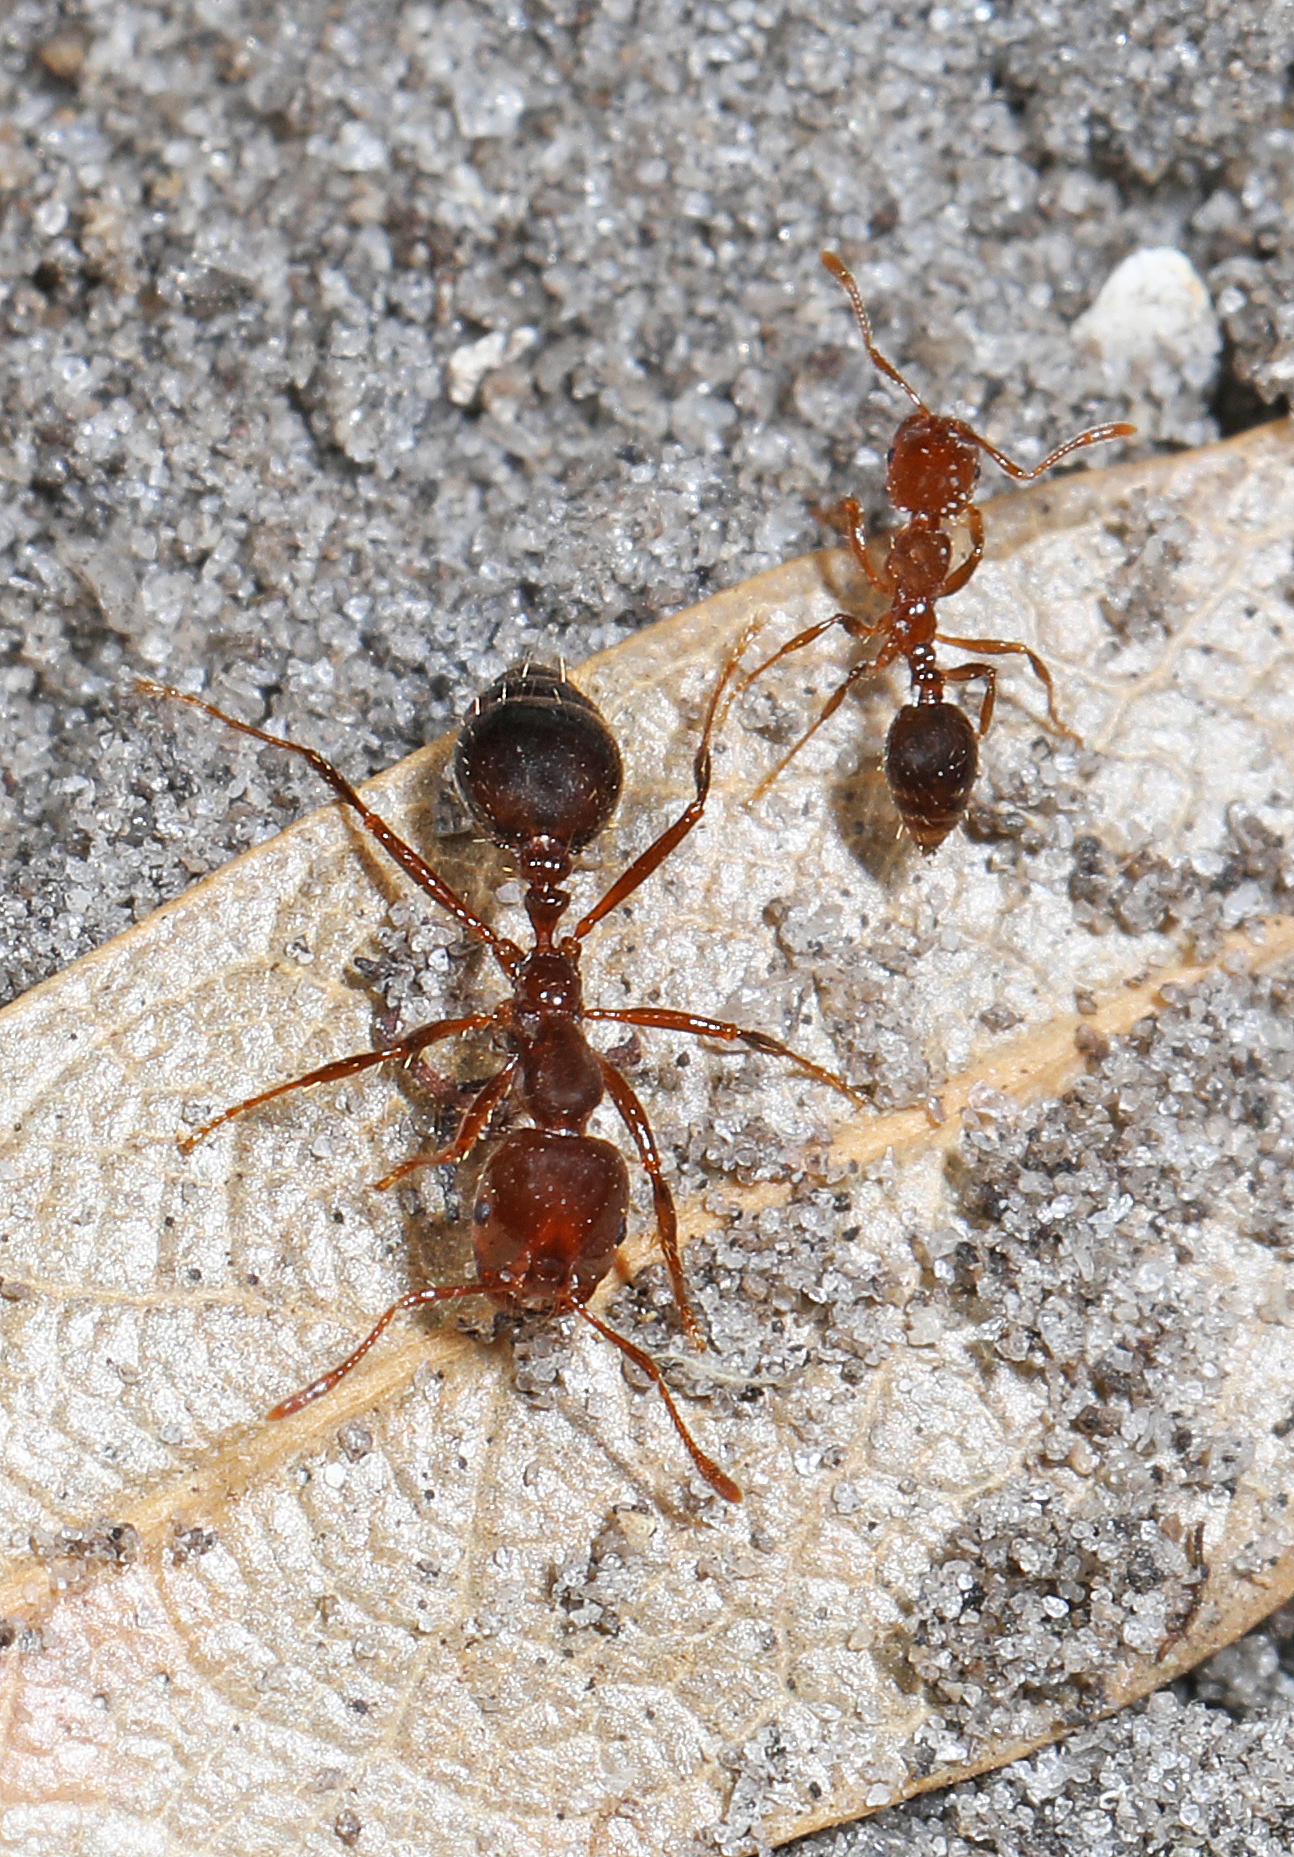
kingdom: Animalia
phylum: Arthropoda
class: Insecta
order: Hymenoptera
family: Formicidae
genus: Solenopsis
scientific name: Solenopsis invicta
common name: Red imported fire ant
